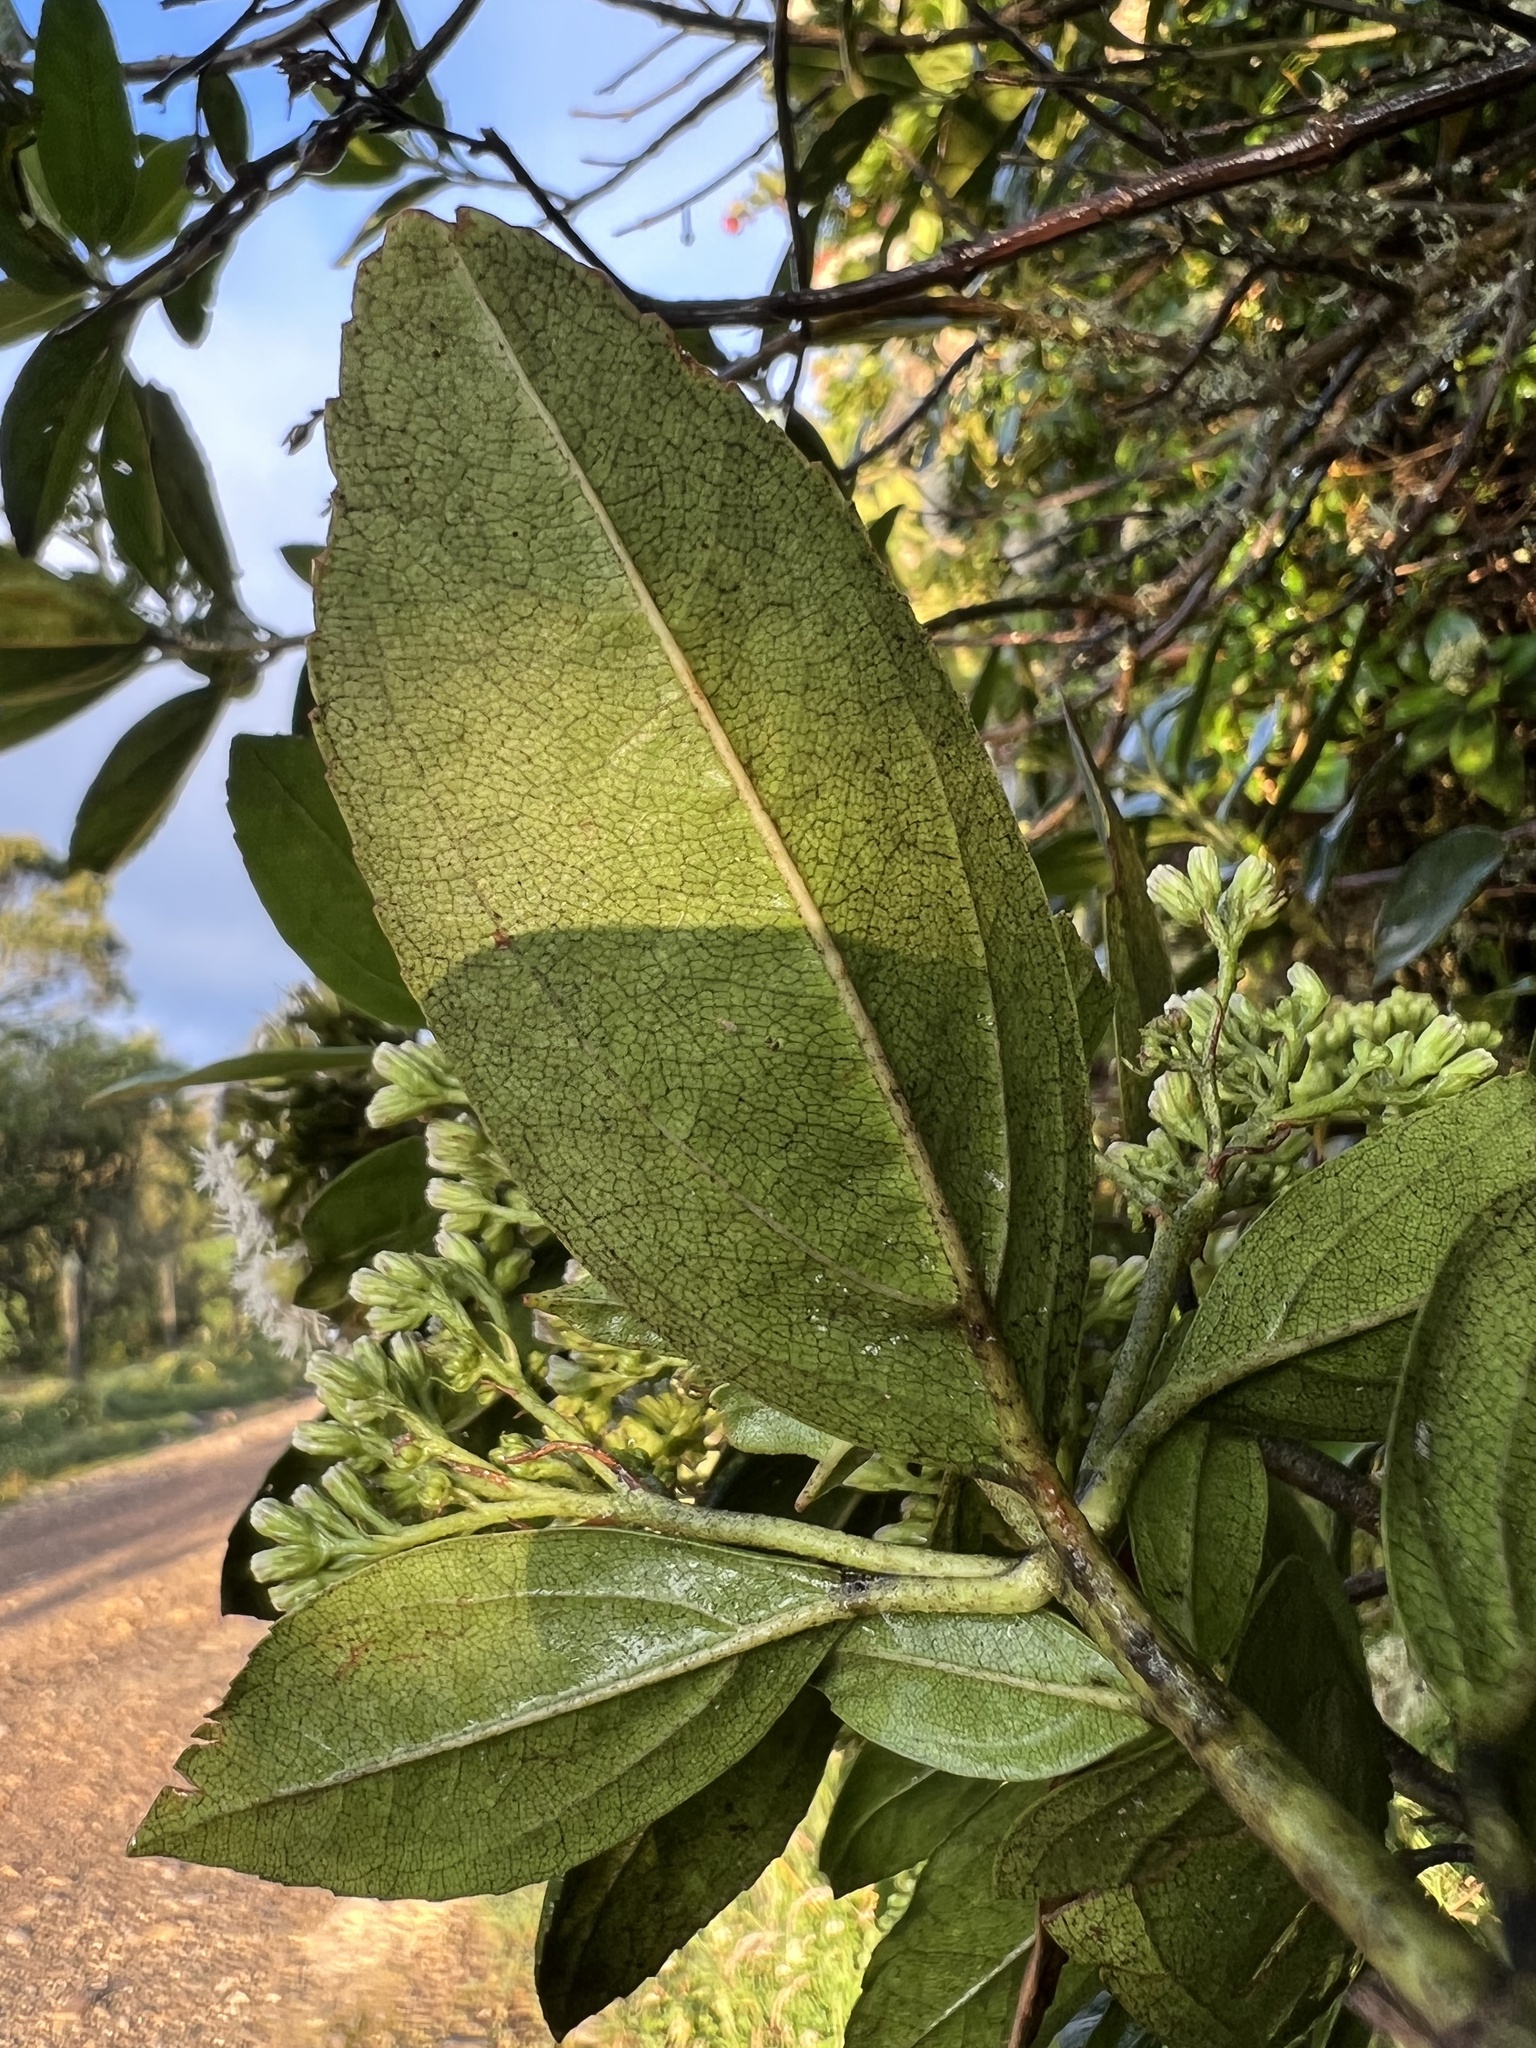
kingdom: Plantae
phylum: Tracheophyta
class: Magnoliopsida
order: Asterales
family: Asteraceae
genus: Ageratina
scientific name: Ageratina tinifolia
